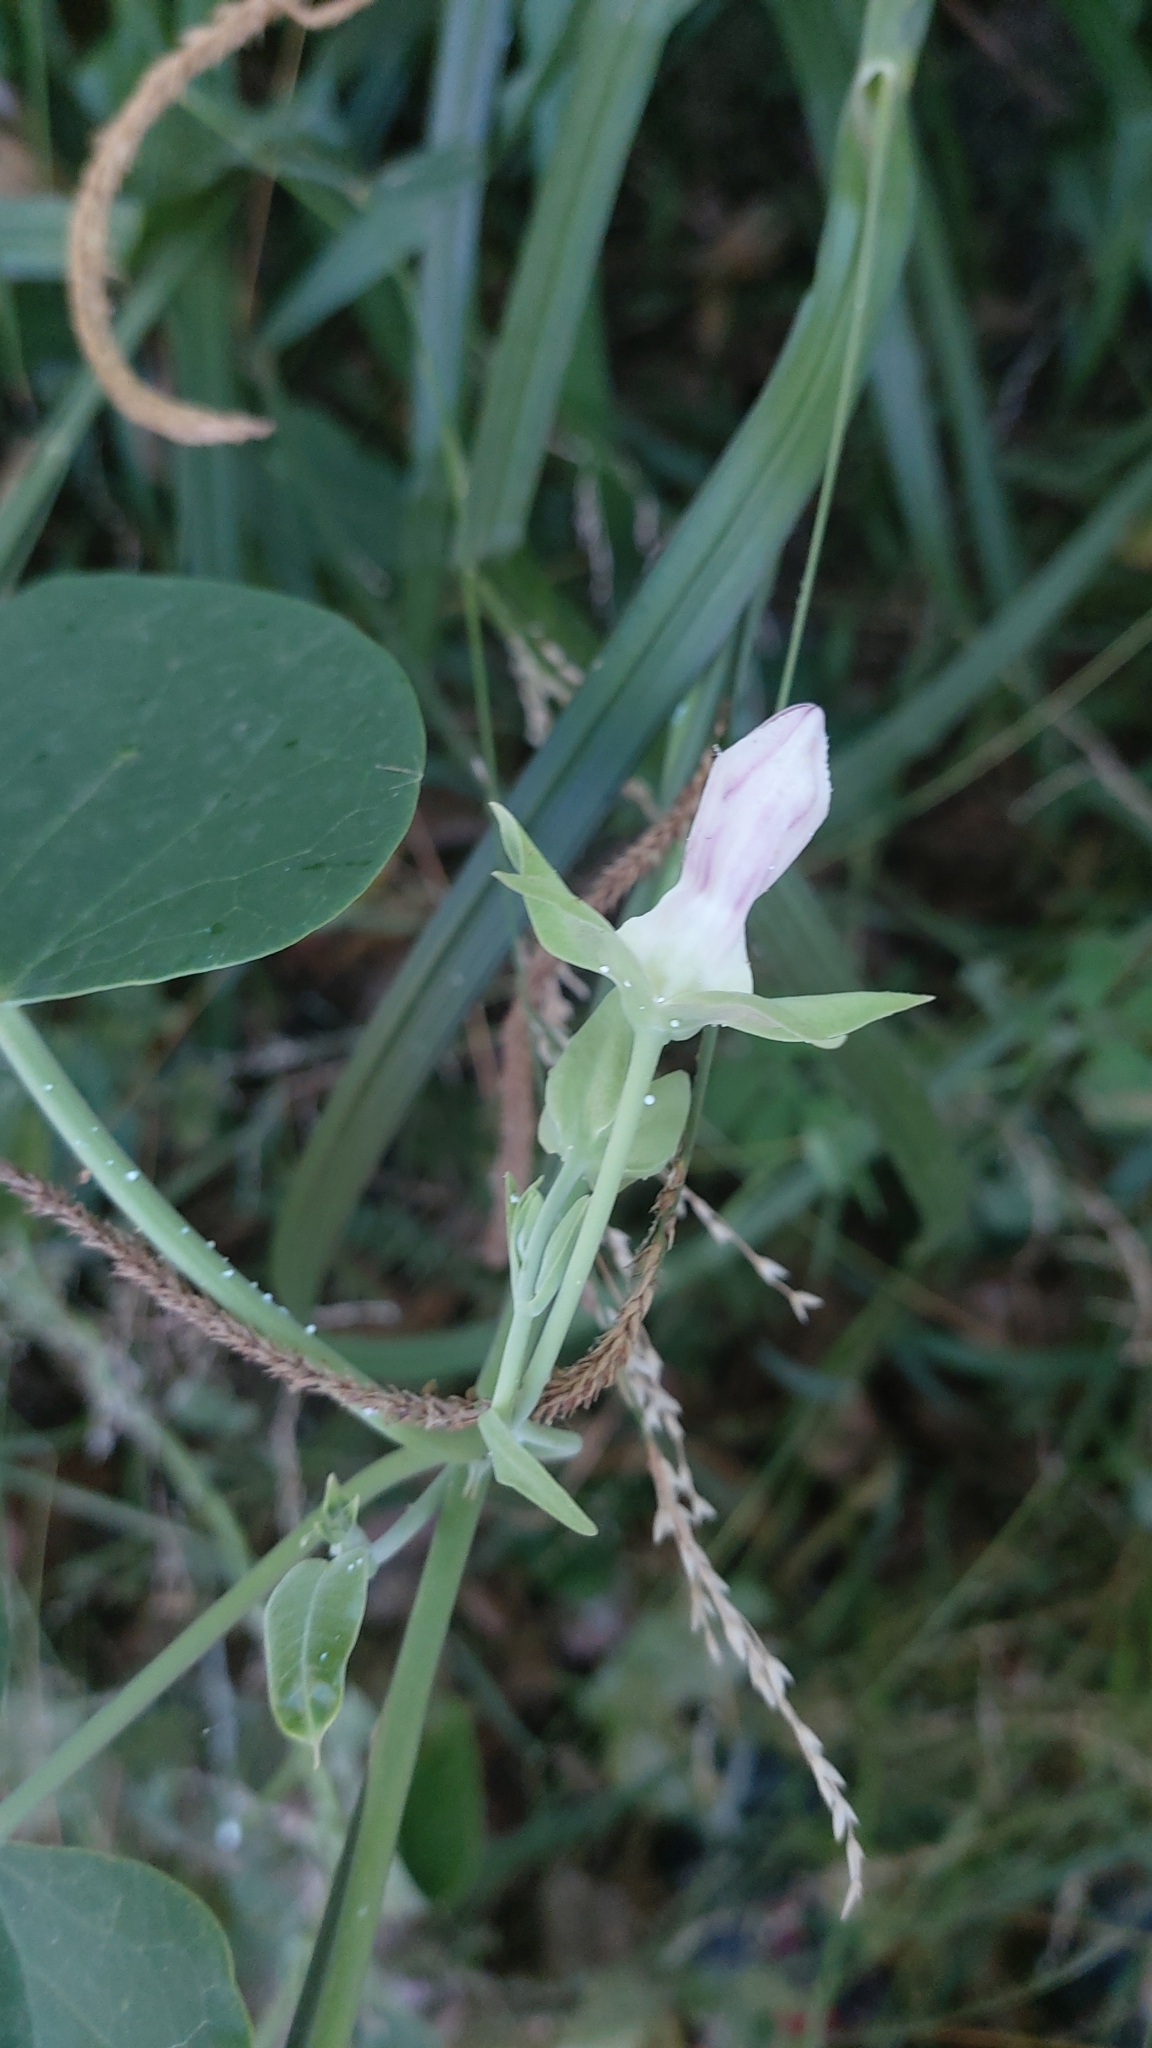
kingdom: Plantae
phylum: Tracheophyta
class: Magnoliopsida
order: Gentianales
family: Apocynaceae
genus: Araujia
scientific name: Araujia sericifera
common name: White bladderflower
